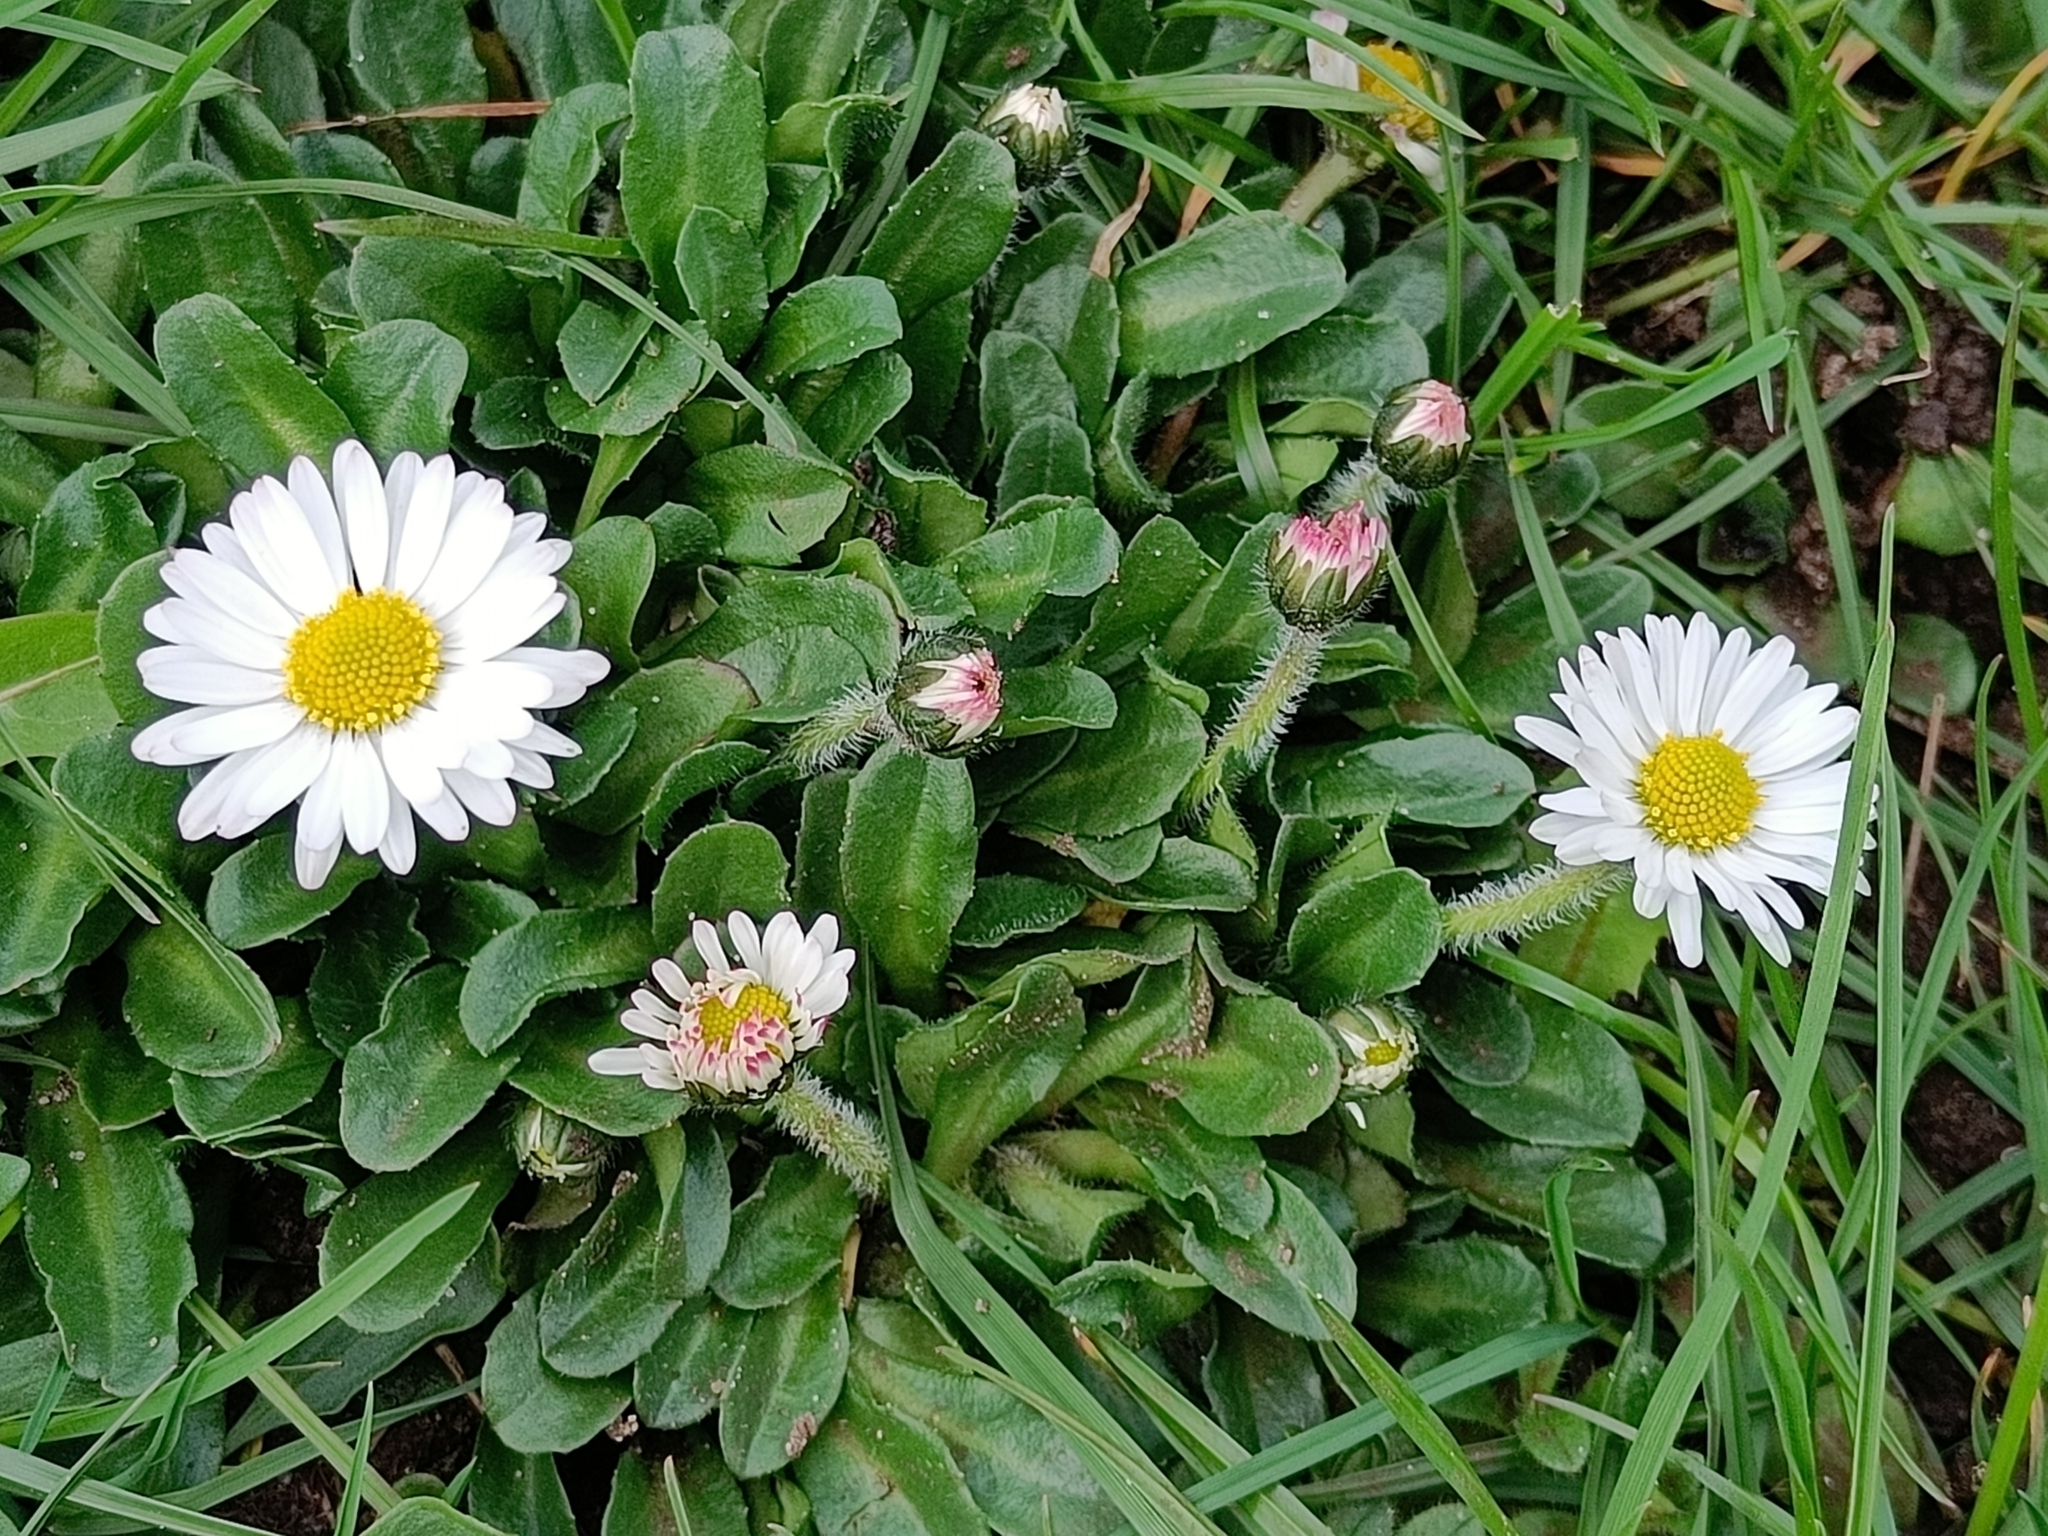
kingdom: Plantae
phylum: Tracheophyta
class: Magnoliopsida
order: Asterales
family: Asteraceae
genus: Bellis
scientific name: Bellis perennis
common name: Lawndaisy
